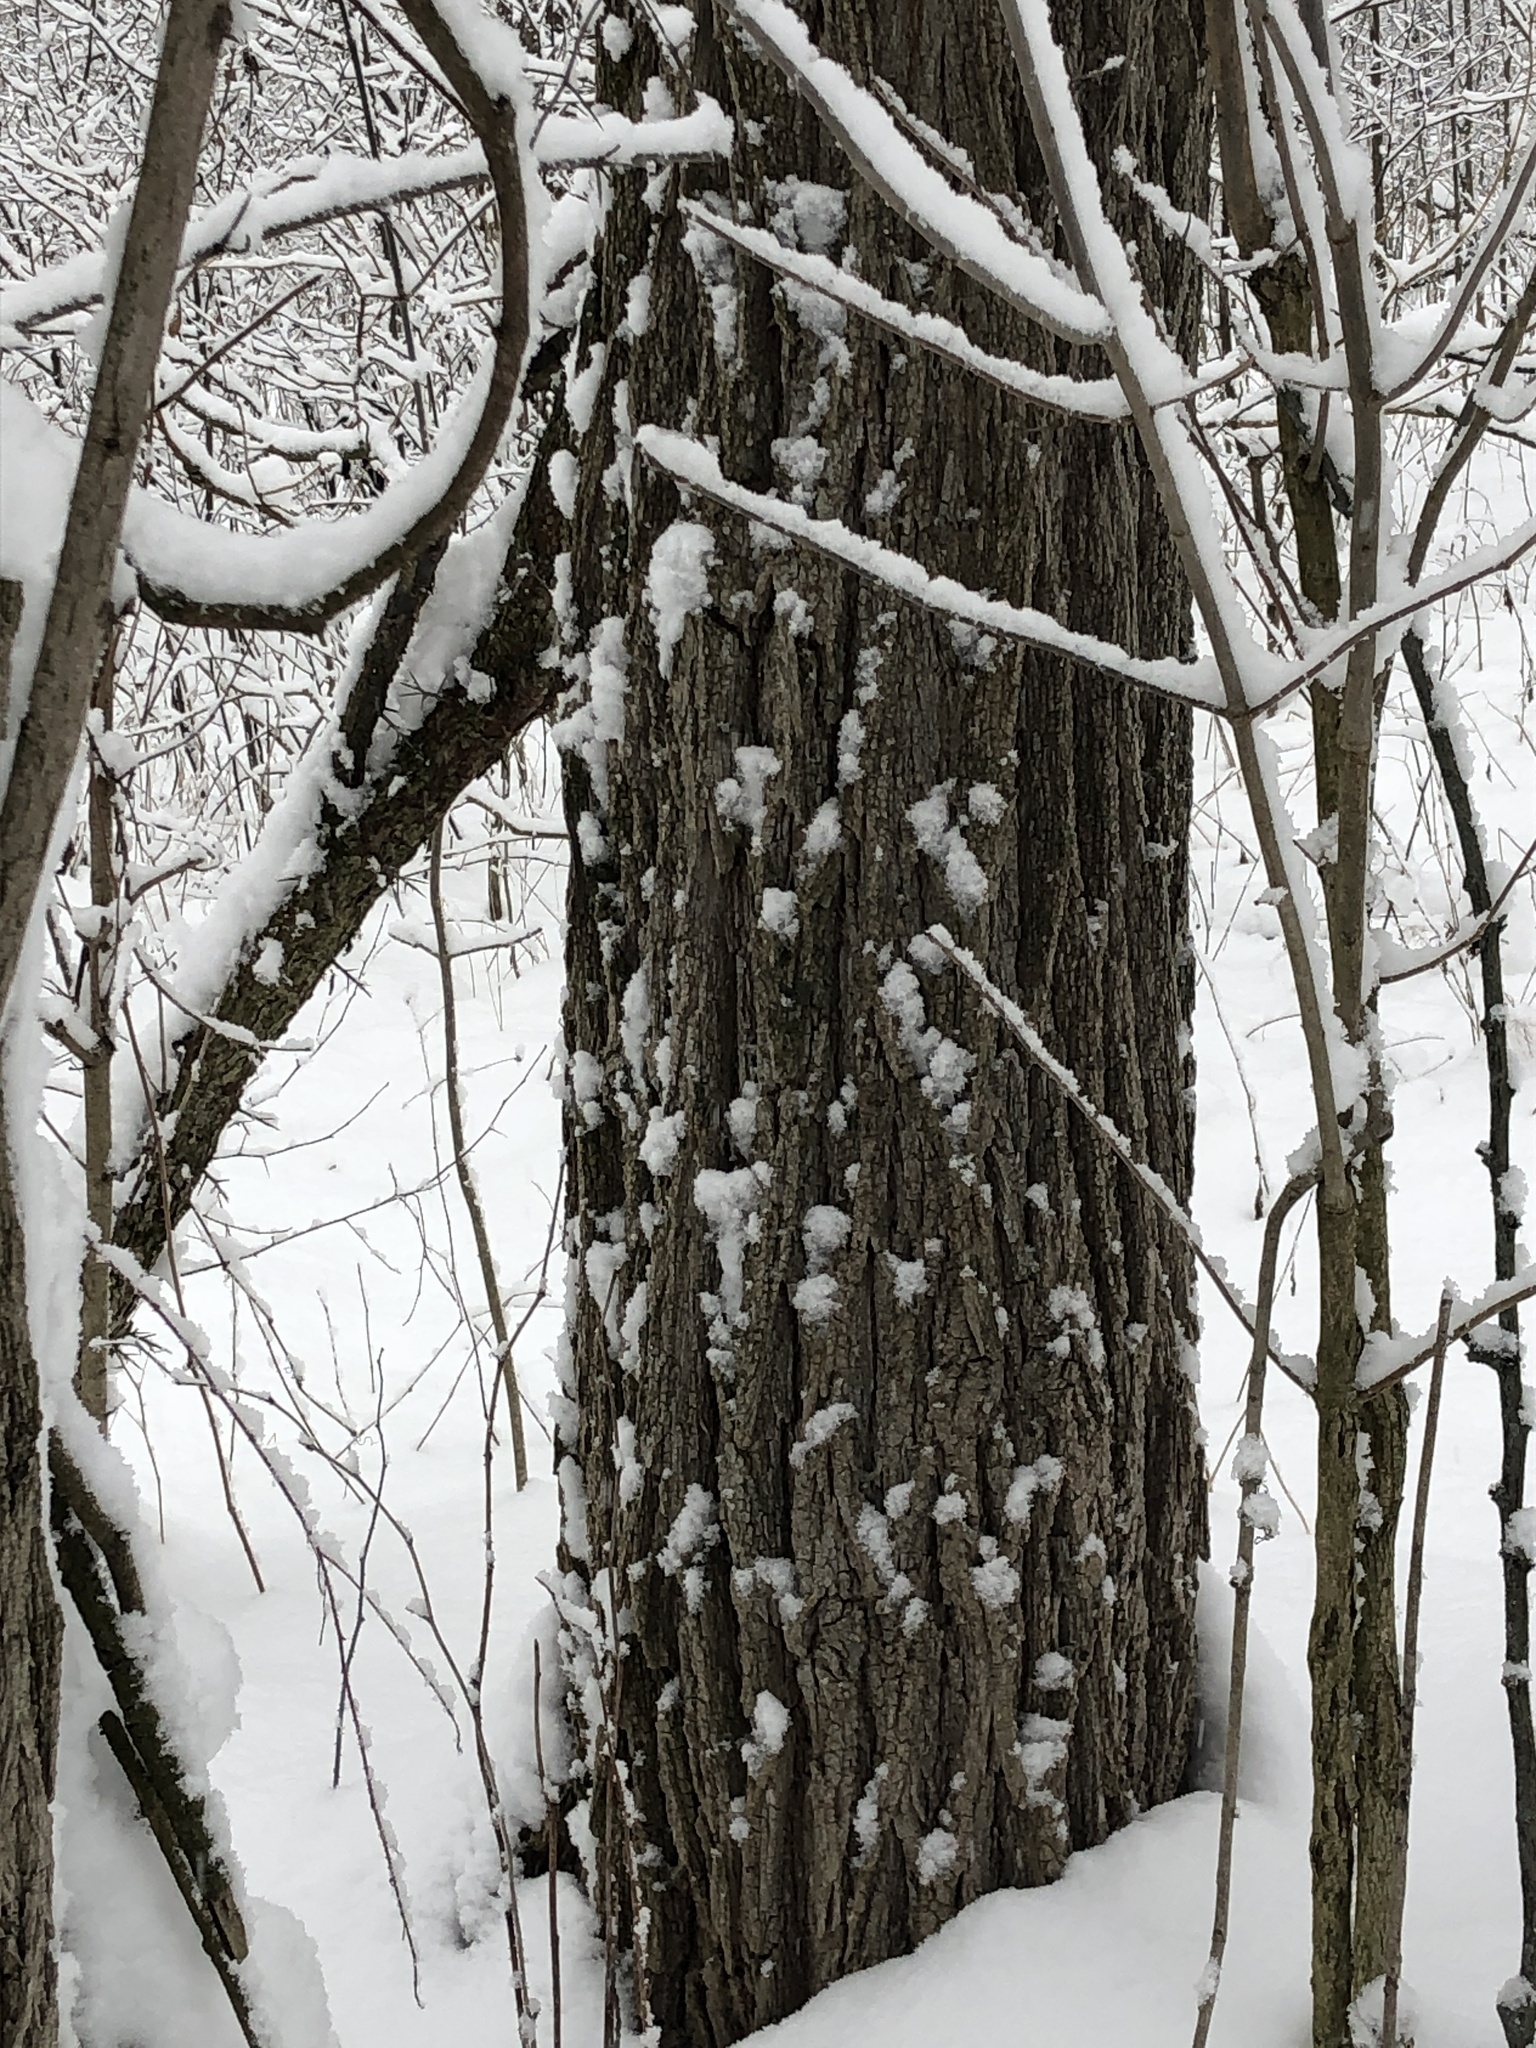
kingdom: Plantae
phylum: Tracheophyta
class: Magnoliopsida
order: Fabales
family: Fabaceae
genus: Robinia
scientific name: Robinia pseudoacacia
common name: Black locust
